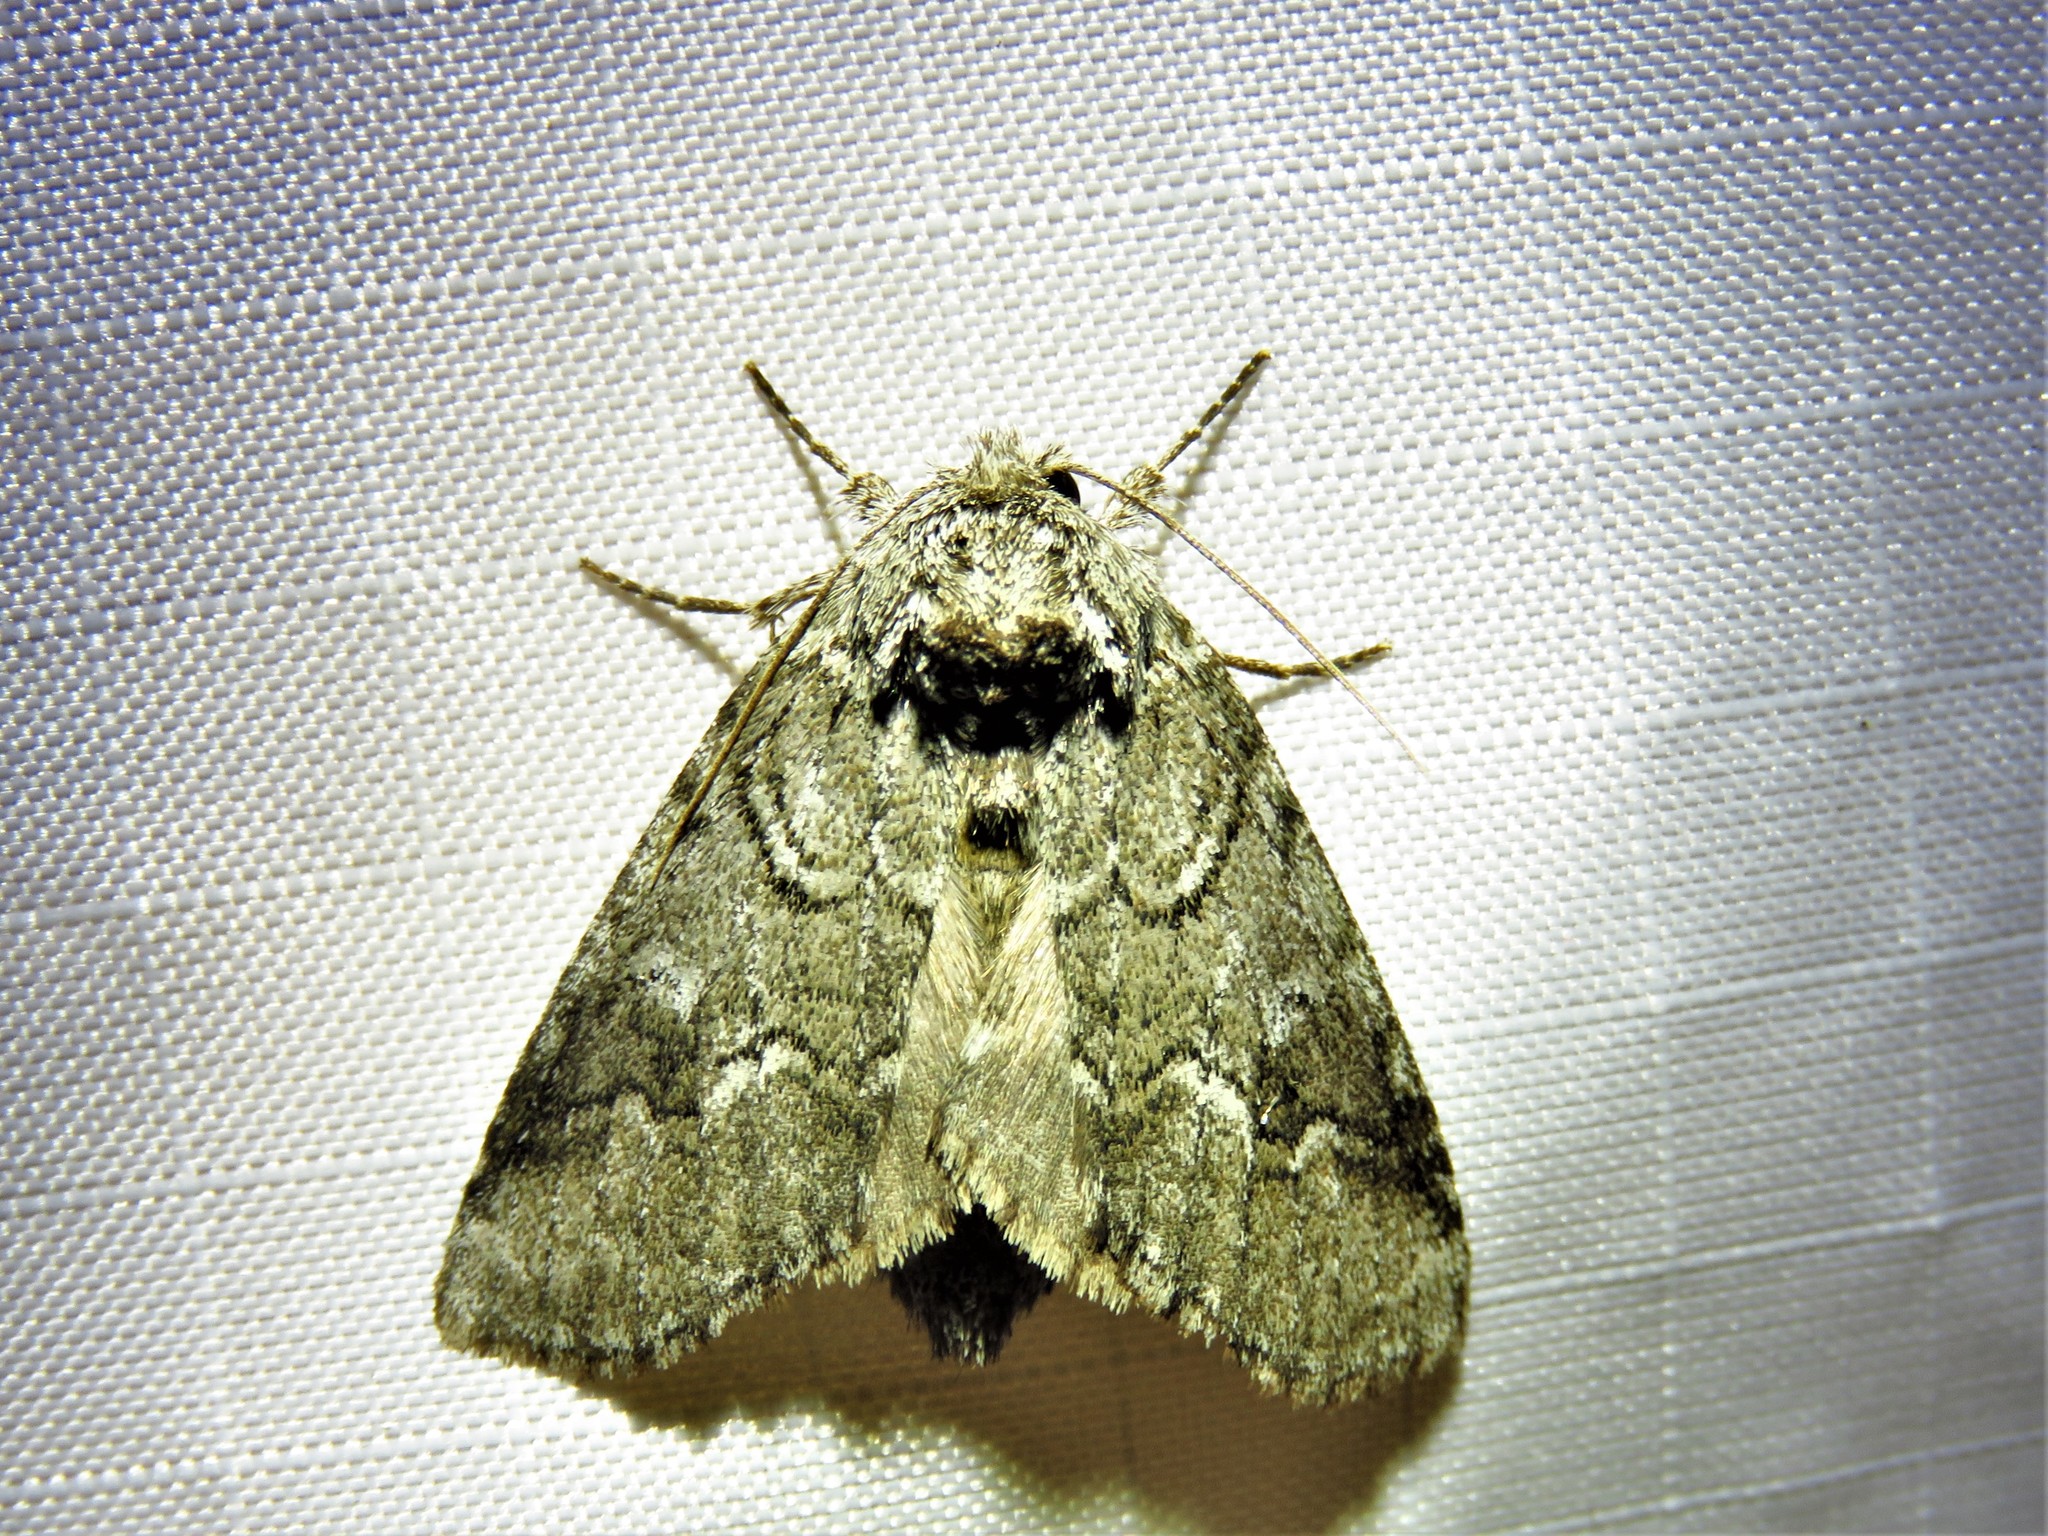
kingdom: Animalia
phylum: Arthropoda
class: Insecta
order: Lepidoptera
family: Notodontidae
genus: Lochmaeus
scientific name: Lochmaeus bilineata
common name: Double-lined prominent
